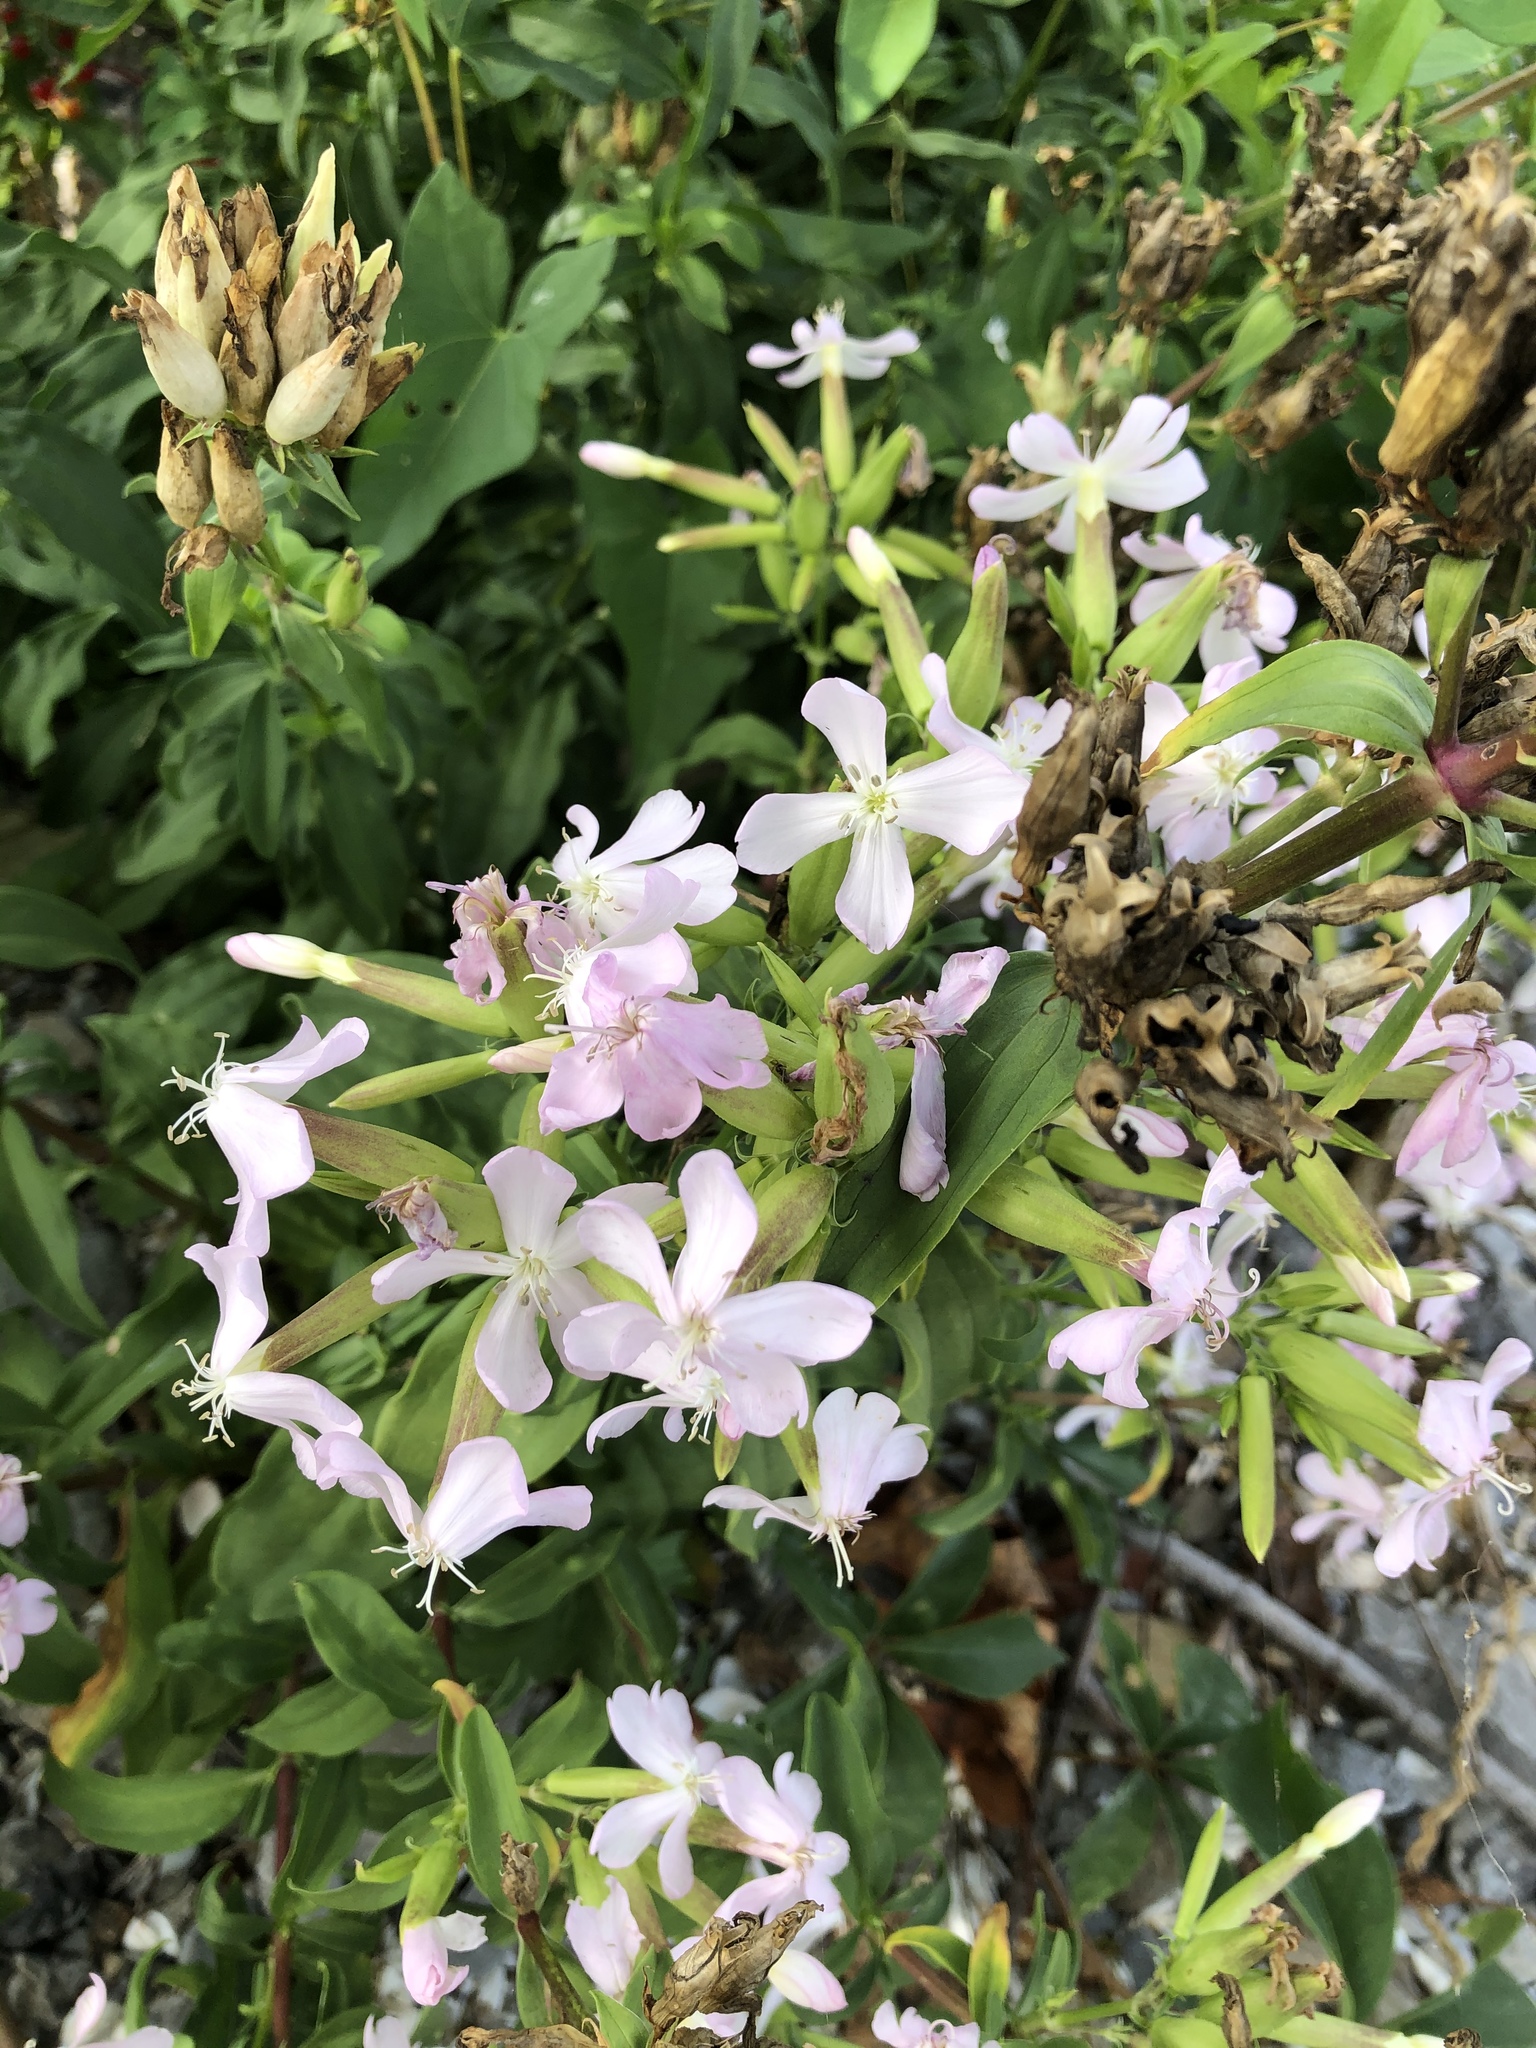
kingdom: Plantae
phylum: Tracheophyta
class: Magnoliopsida
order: Caryophyllales
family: Caryophyllaceae
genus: Saponaria
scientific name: Saponaria officinalis
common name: Soapwort
